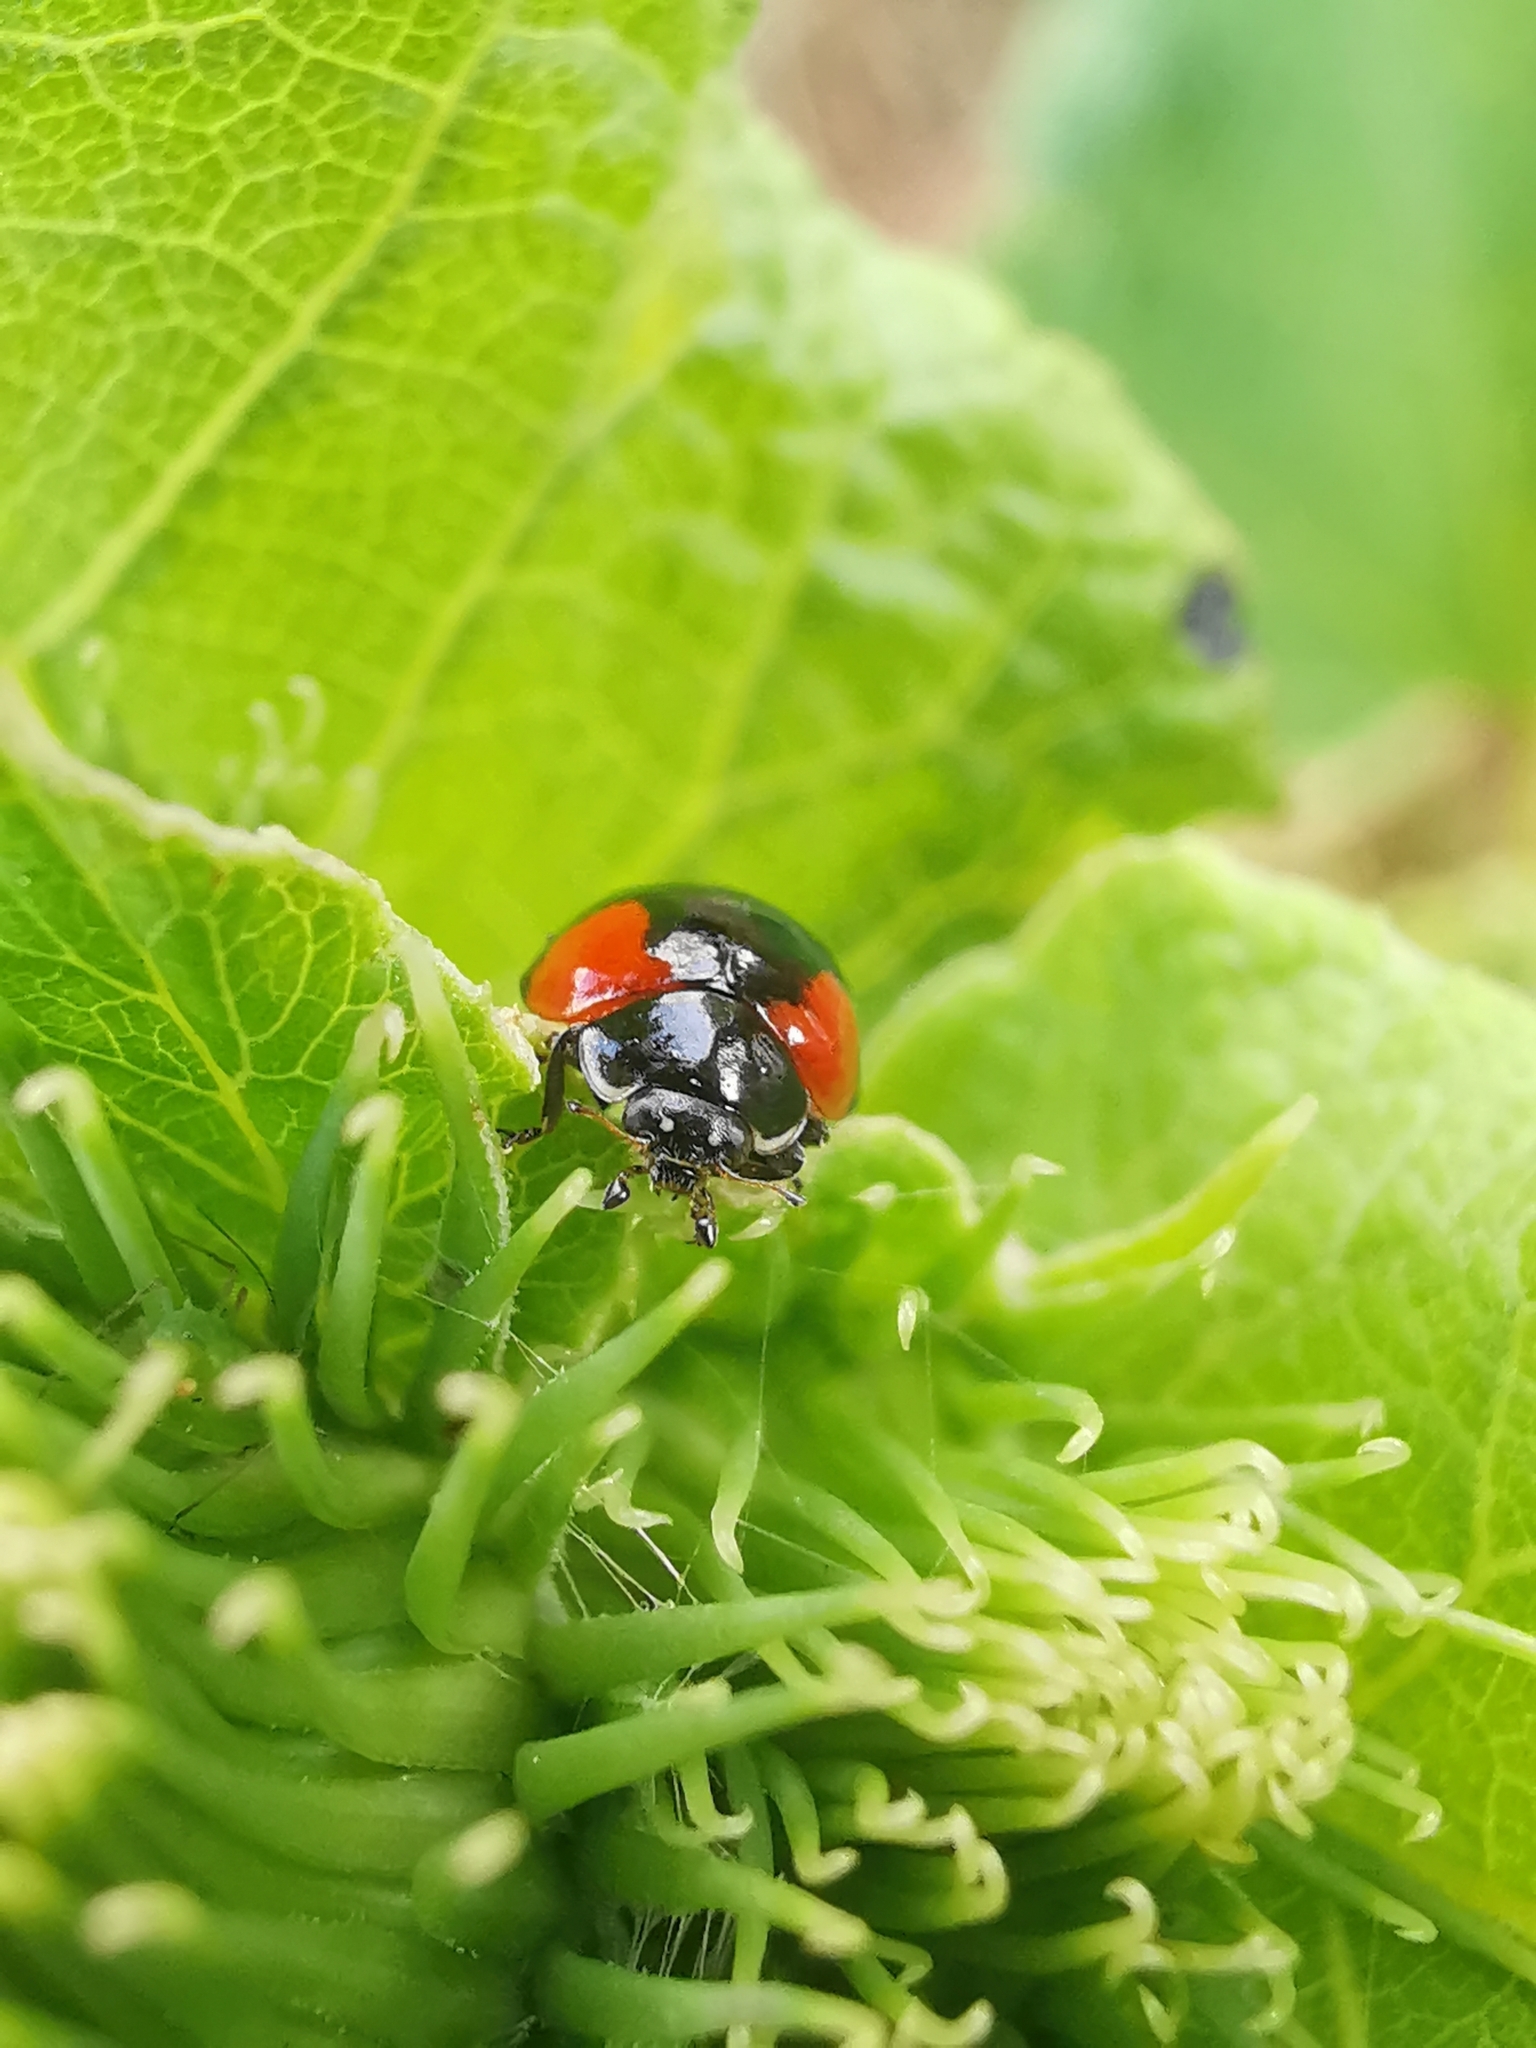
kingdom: Animalia
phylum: Arthropoda
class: Insecta
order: Coleoptera
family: Coccinellidae
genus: Adalia
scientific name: Adalia bipunctata
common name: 2-spot ladybird
